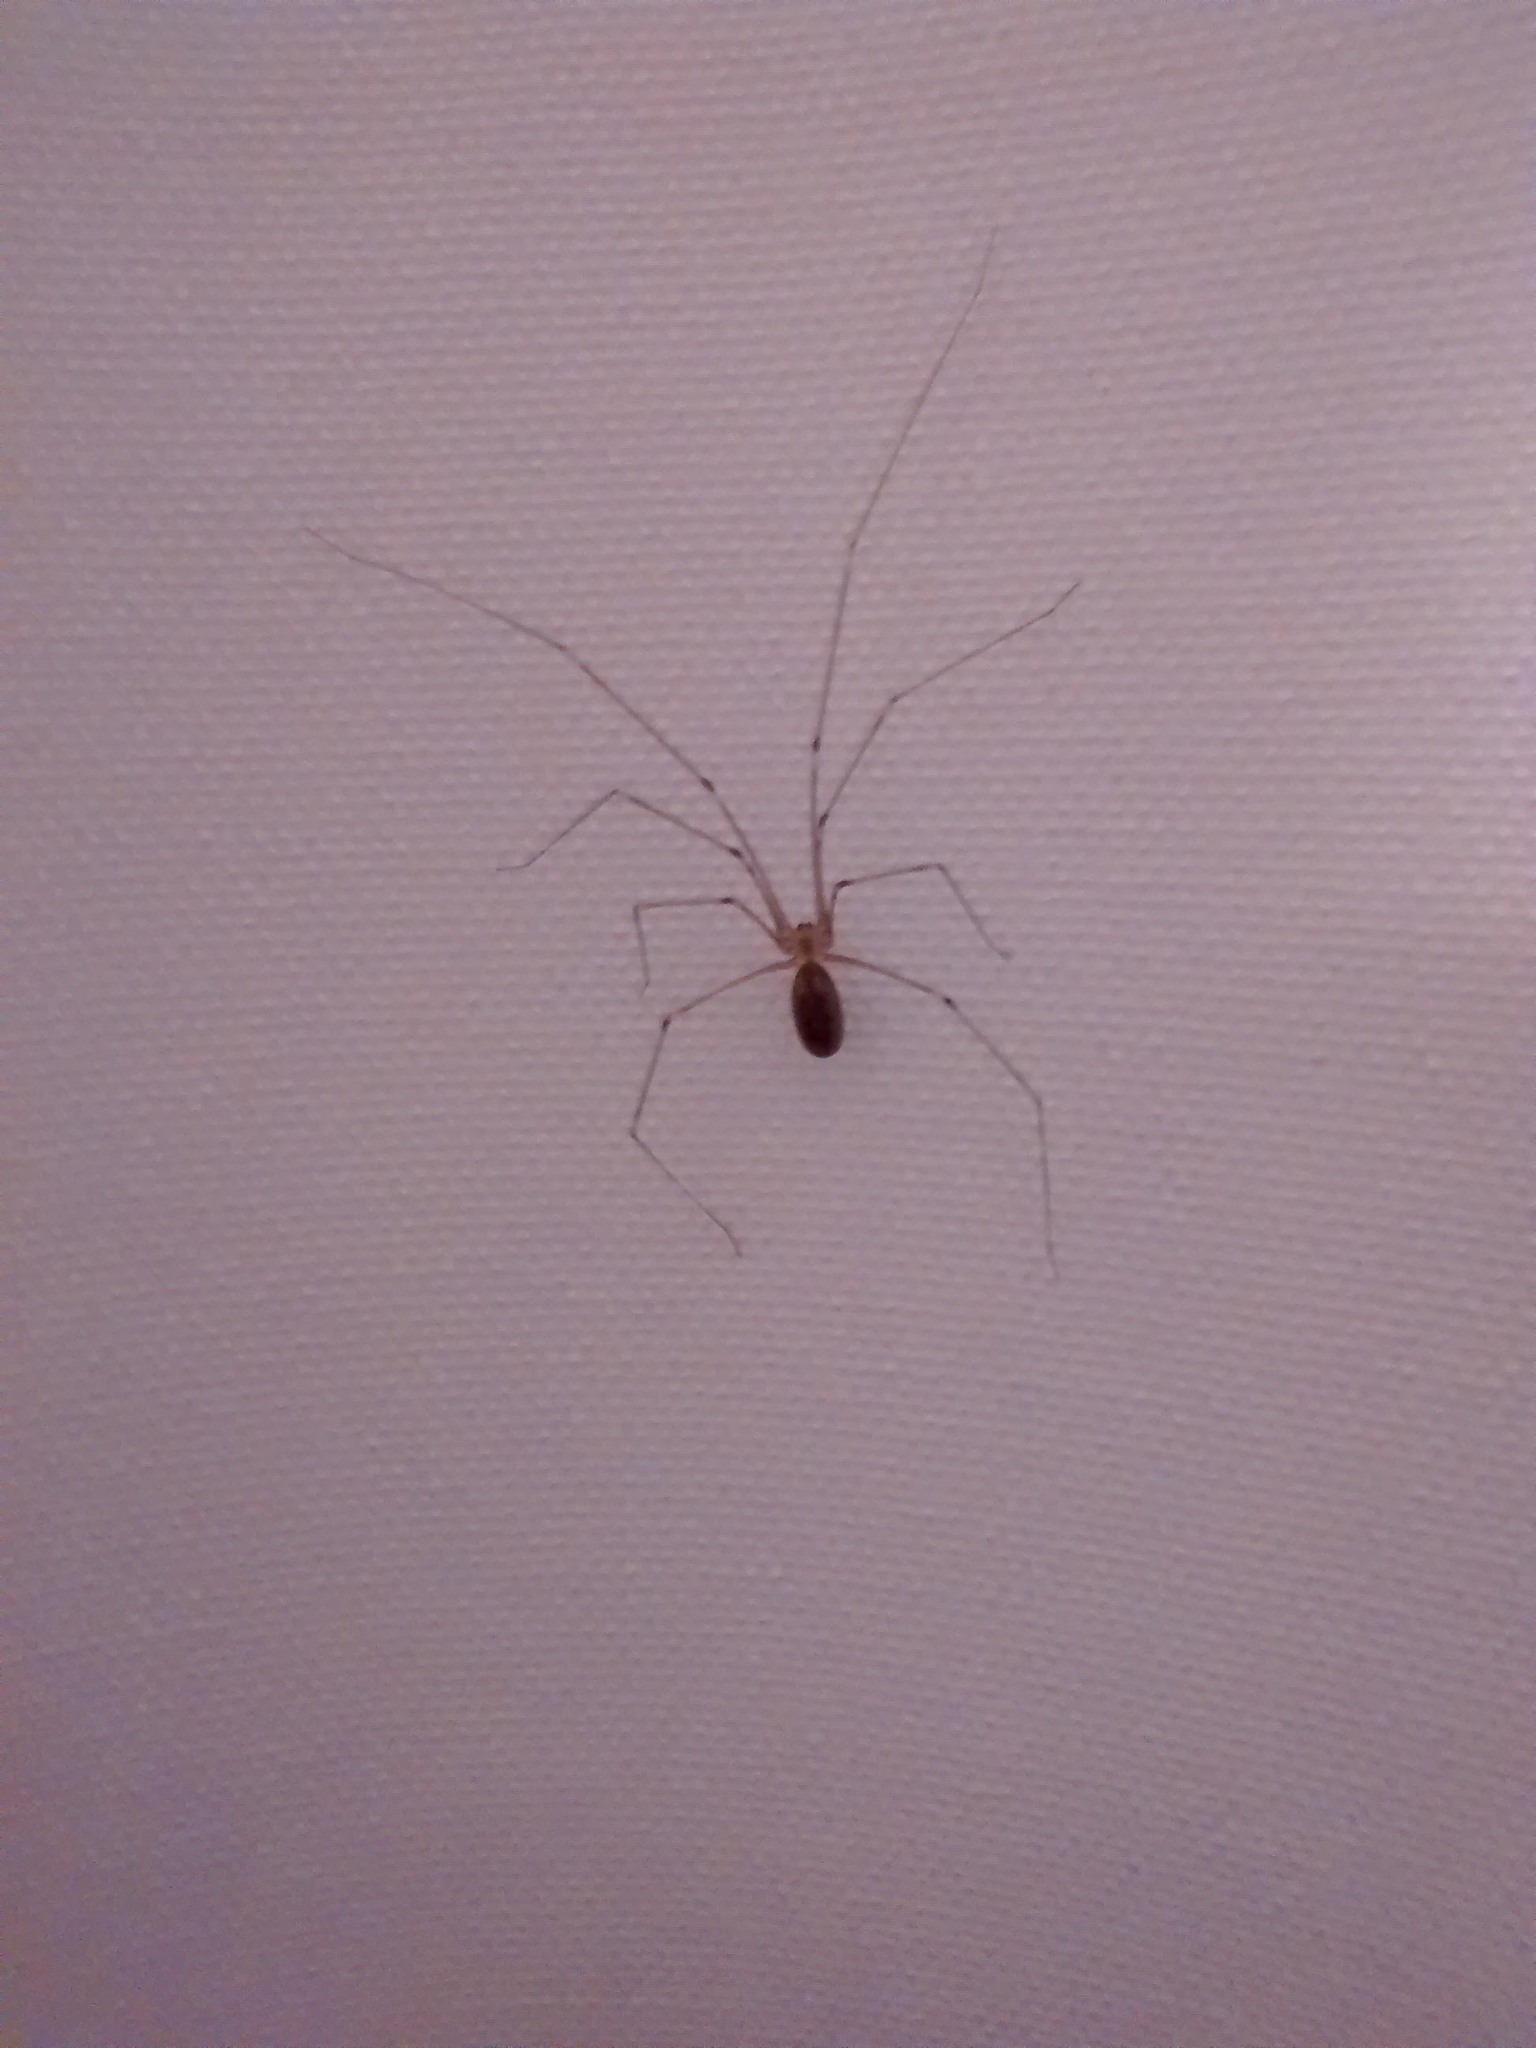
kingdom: Animalia
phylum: Arthropoda
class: Arachnida
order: Araneae
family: Pholcidae
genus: Pholcus
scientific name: Pholcus phalangioides
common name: Longbodied cellar spider
